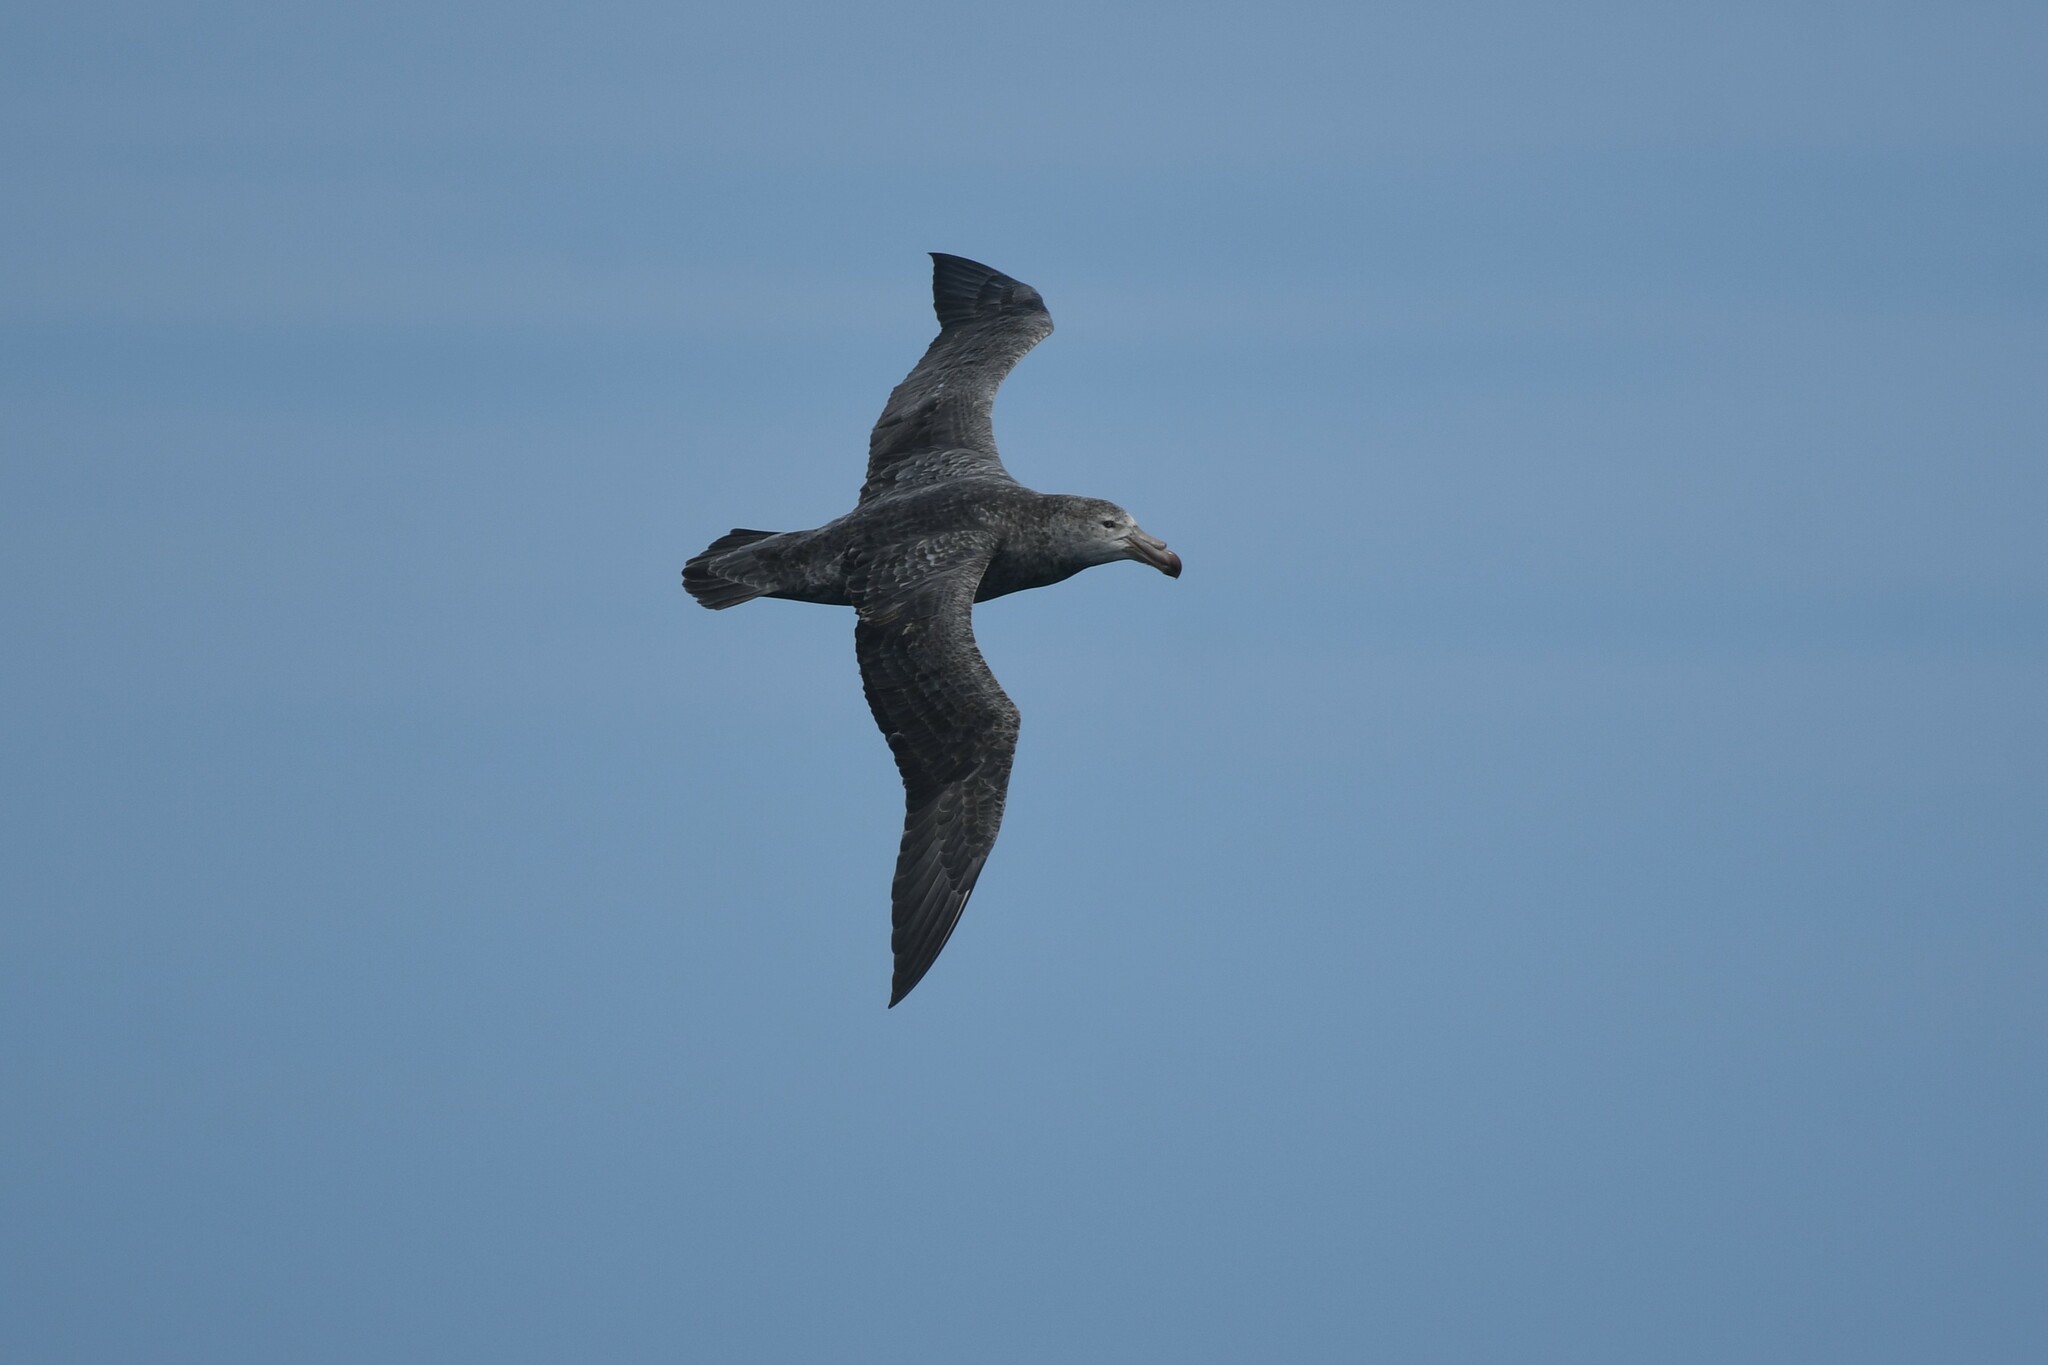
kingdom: Animalia
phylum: Chordata
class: Aves
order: Procellariiformes
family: Procellariidae
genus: Macronectes
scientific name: Macronectes halli
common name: Northern giant petrel
